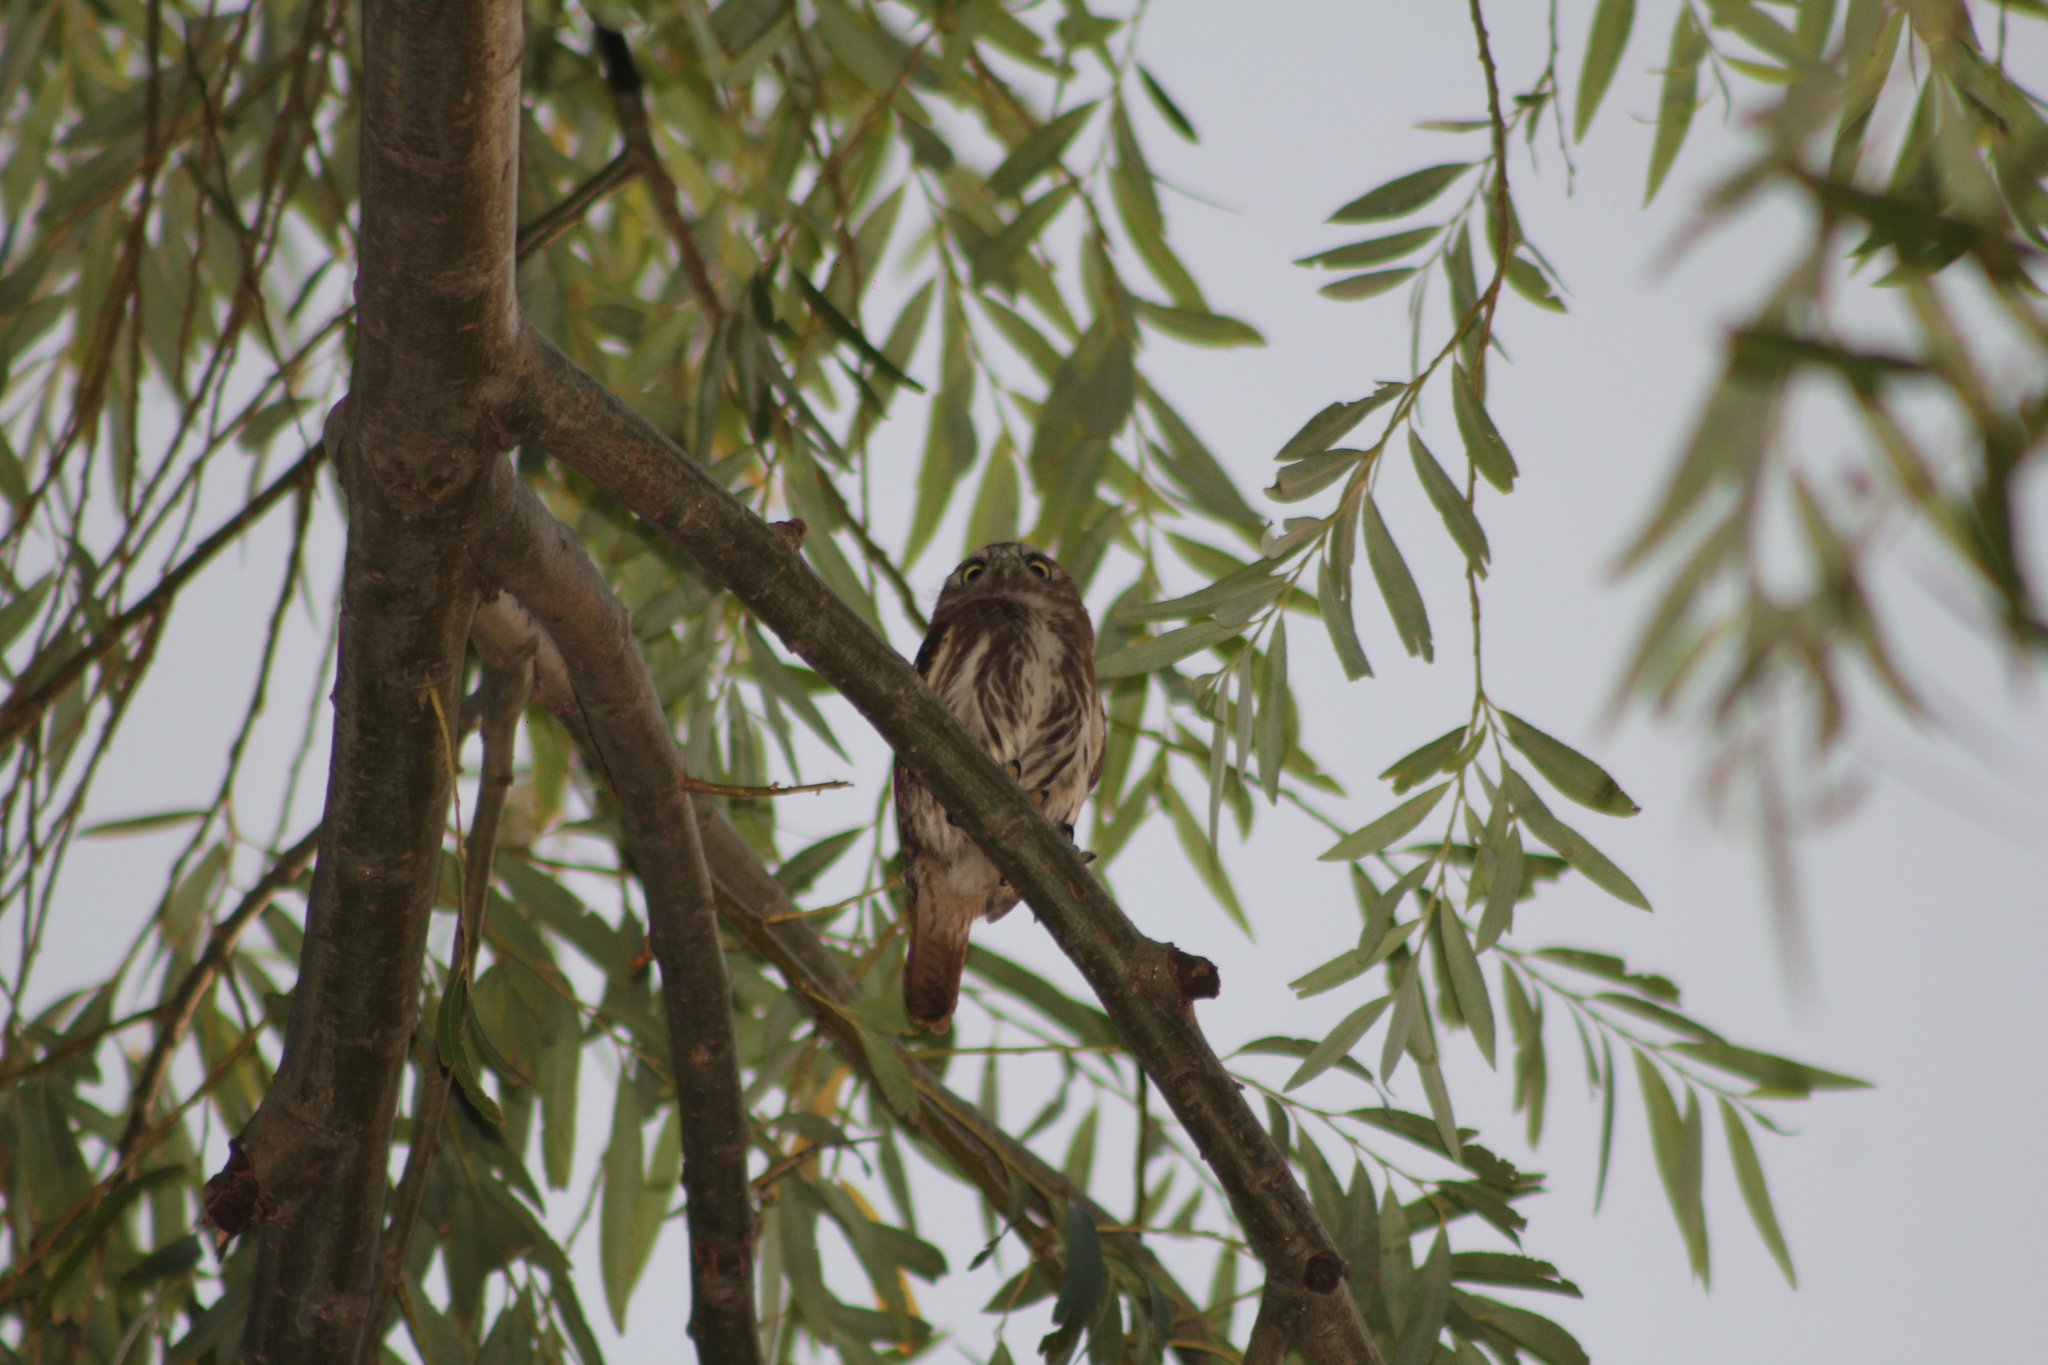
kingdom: Animalia
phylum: Chordata
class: Aves
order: Strigiformes
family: Strigidae
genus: Glaucidium
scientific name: Glaucidium brasilianum
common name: Ferruginous pygmy-owl
